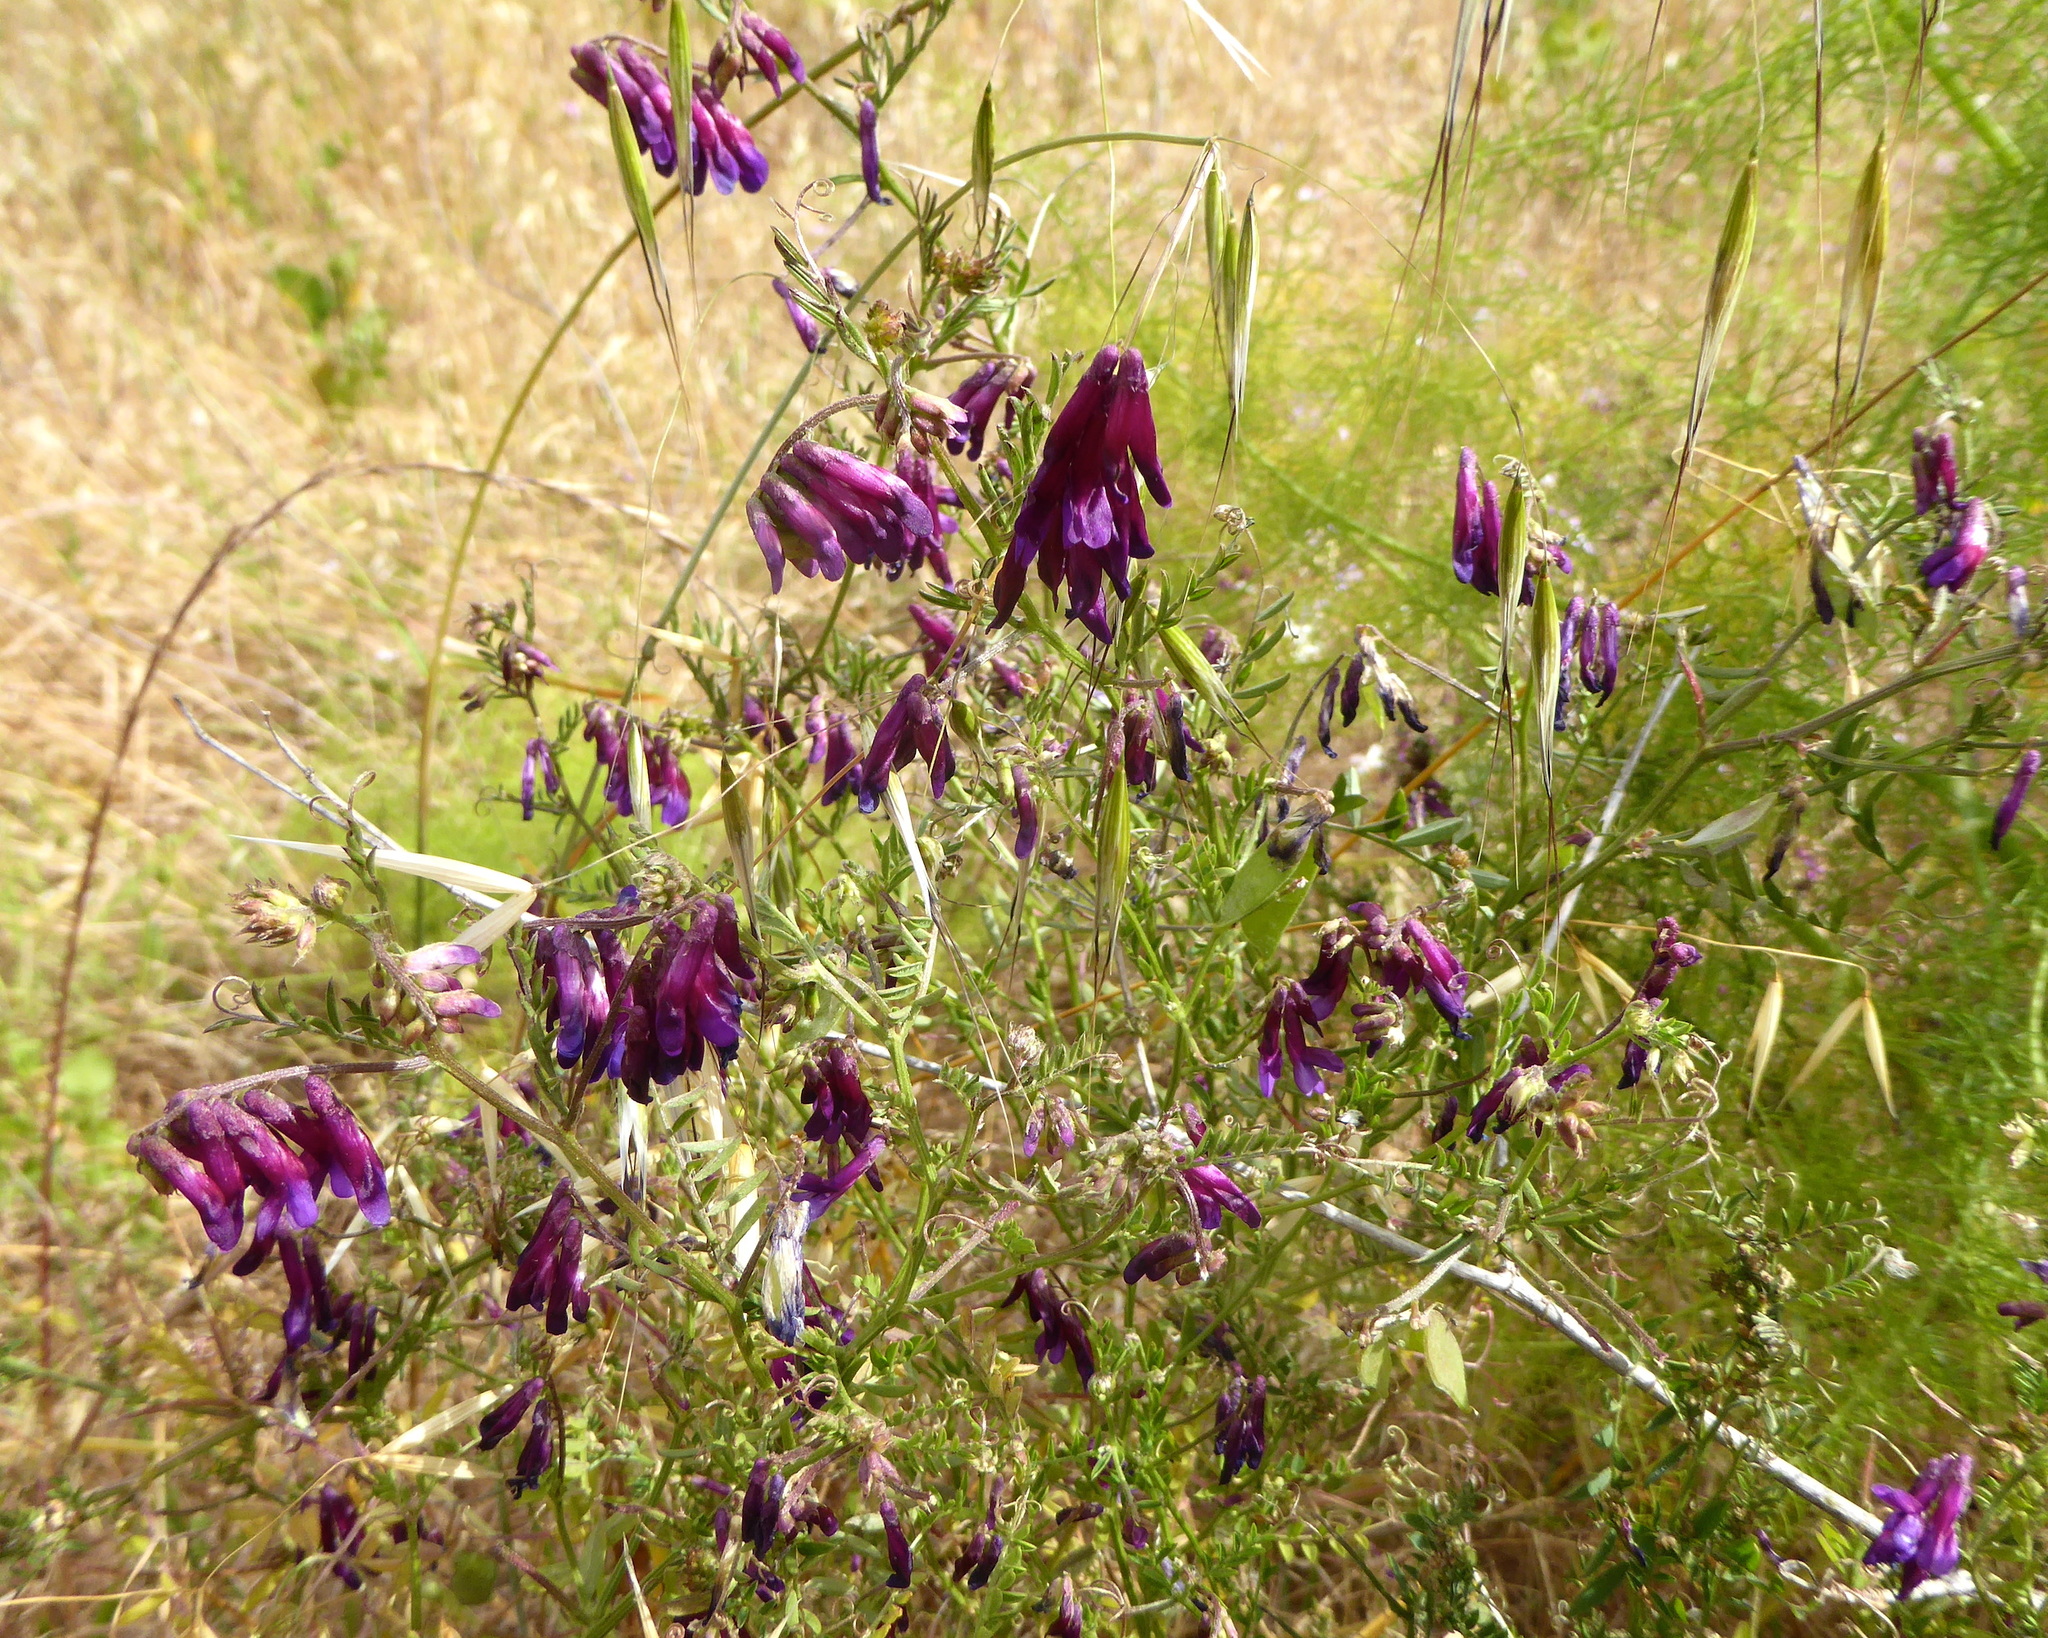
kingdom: Plantae
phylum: Tracheophyta
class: Magnoliopsida
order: Fabales
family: Fabaceae
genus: Vicia
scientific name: Vicia villosa
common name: Fodder vetch
